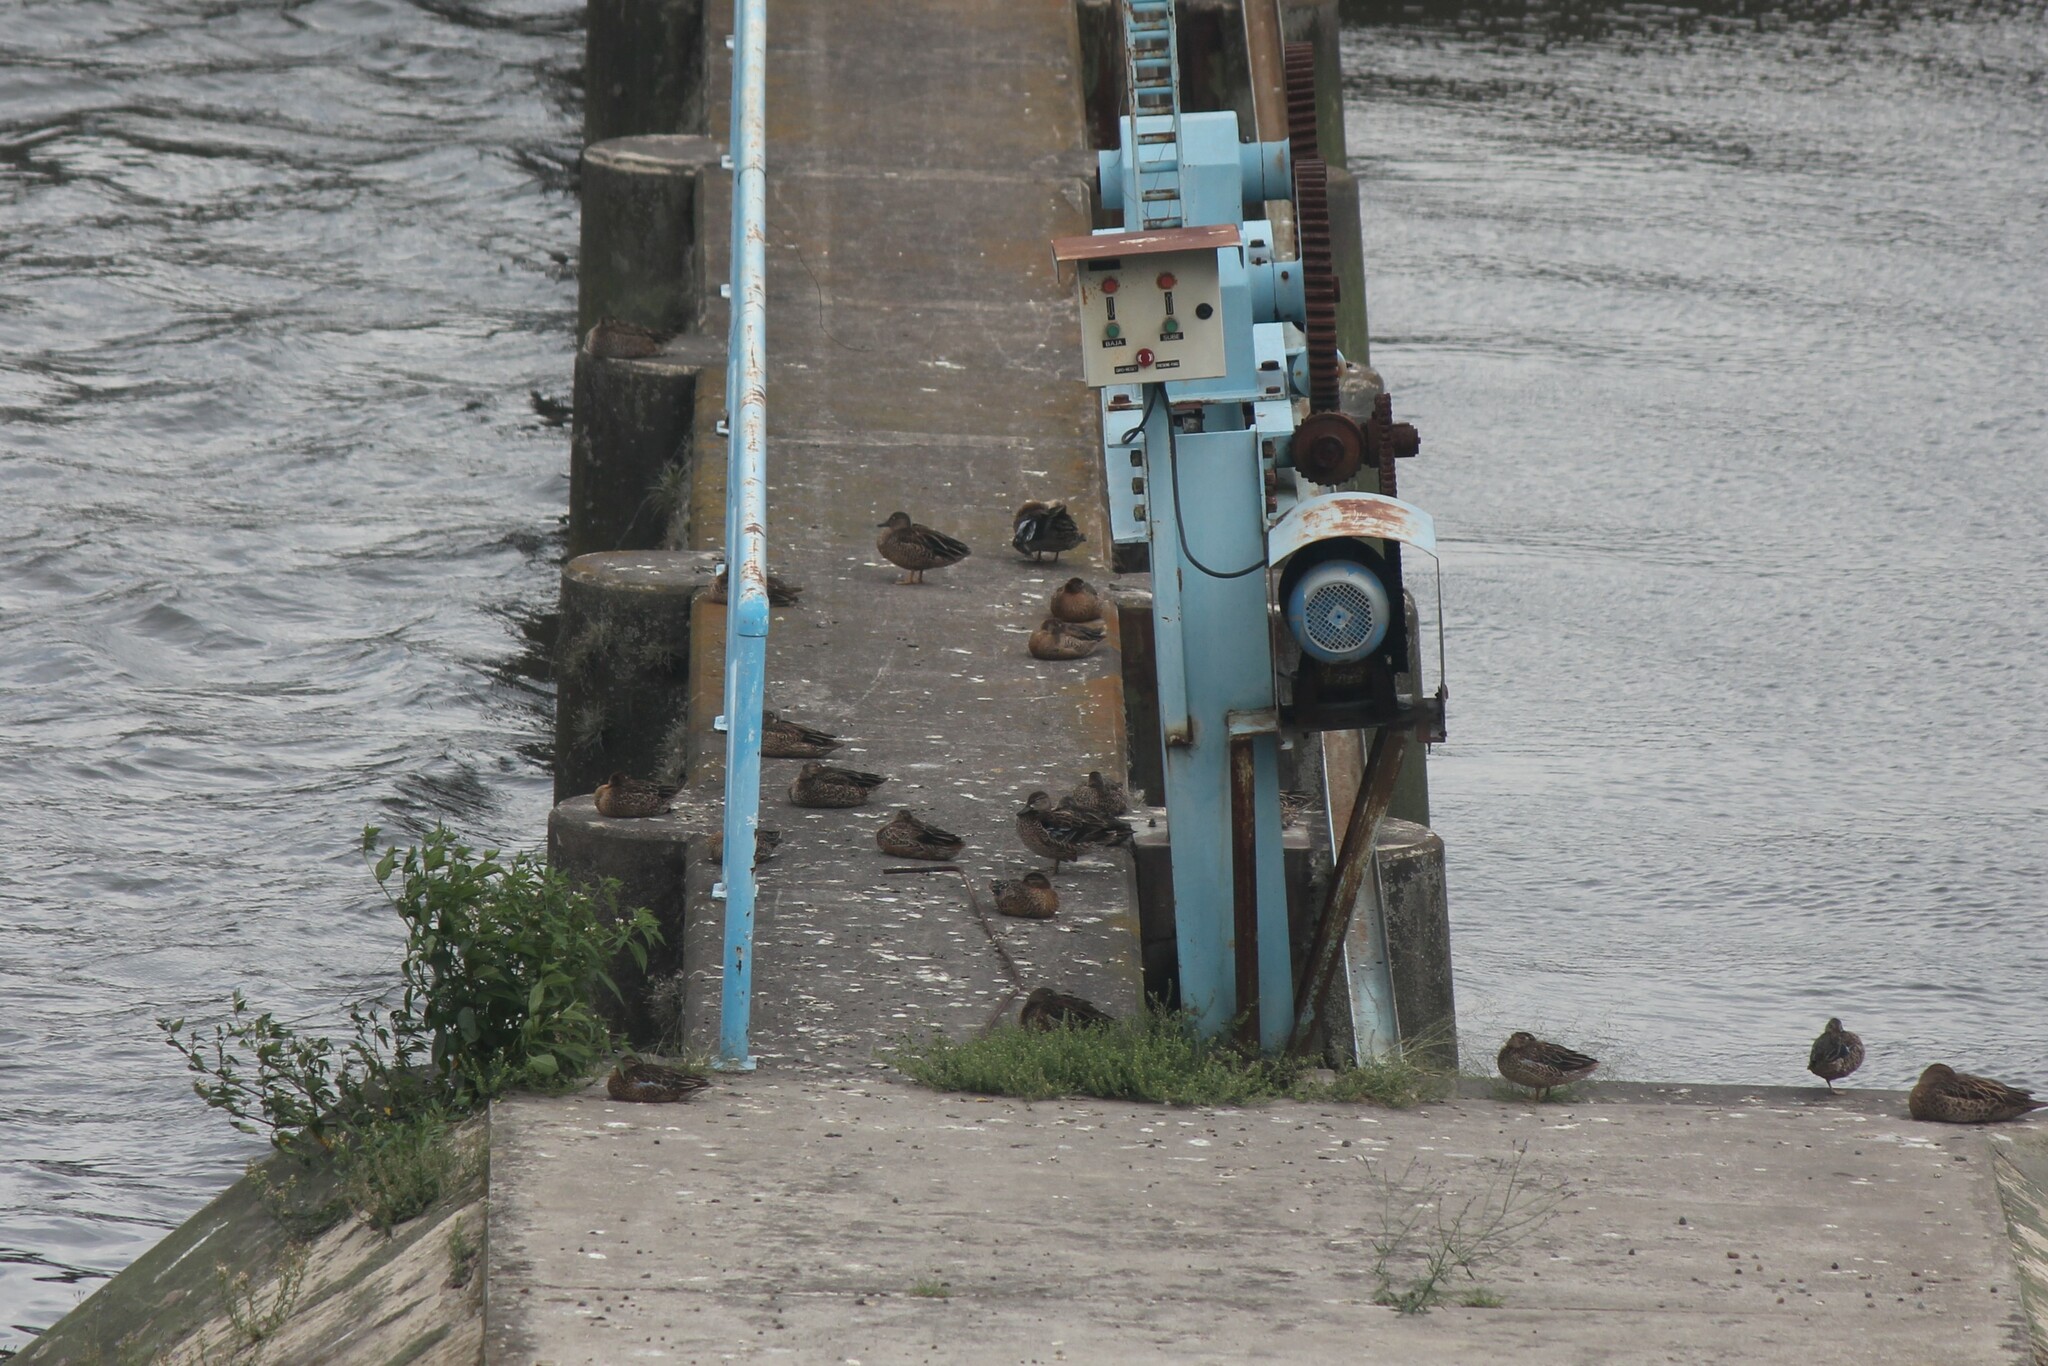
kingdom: Animalia
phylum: Chordata
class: Aves
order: Anseriformes
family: Anatidae
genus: Spatula
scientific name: Spatula discors
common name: Blue-winged teal
